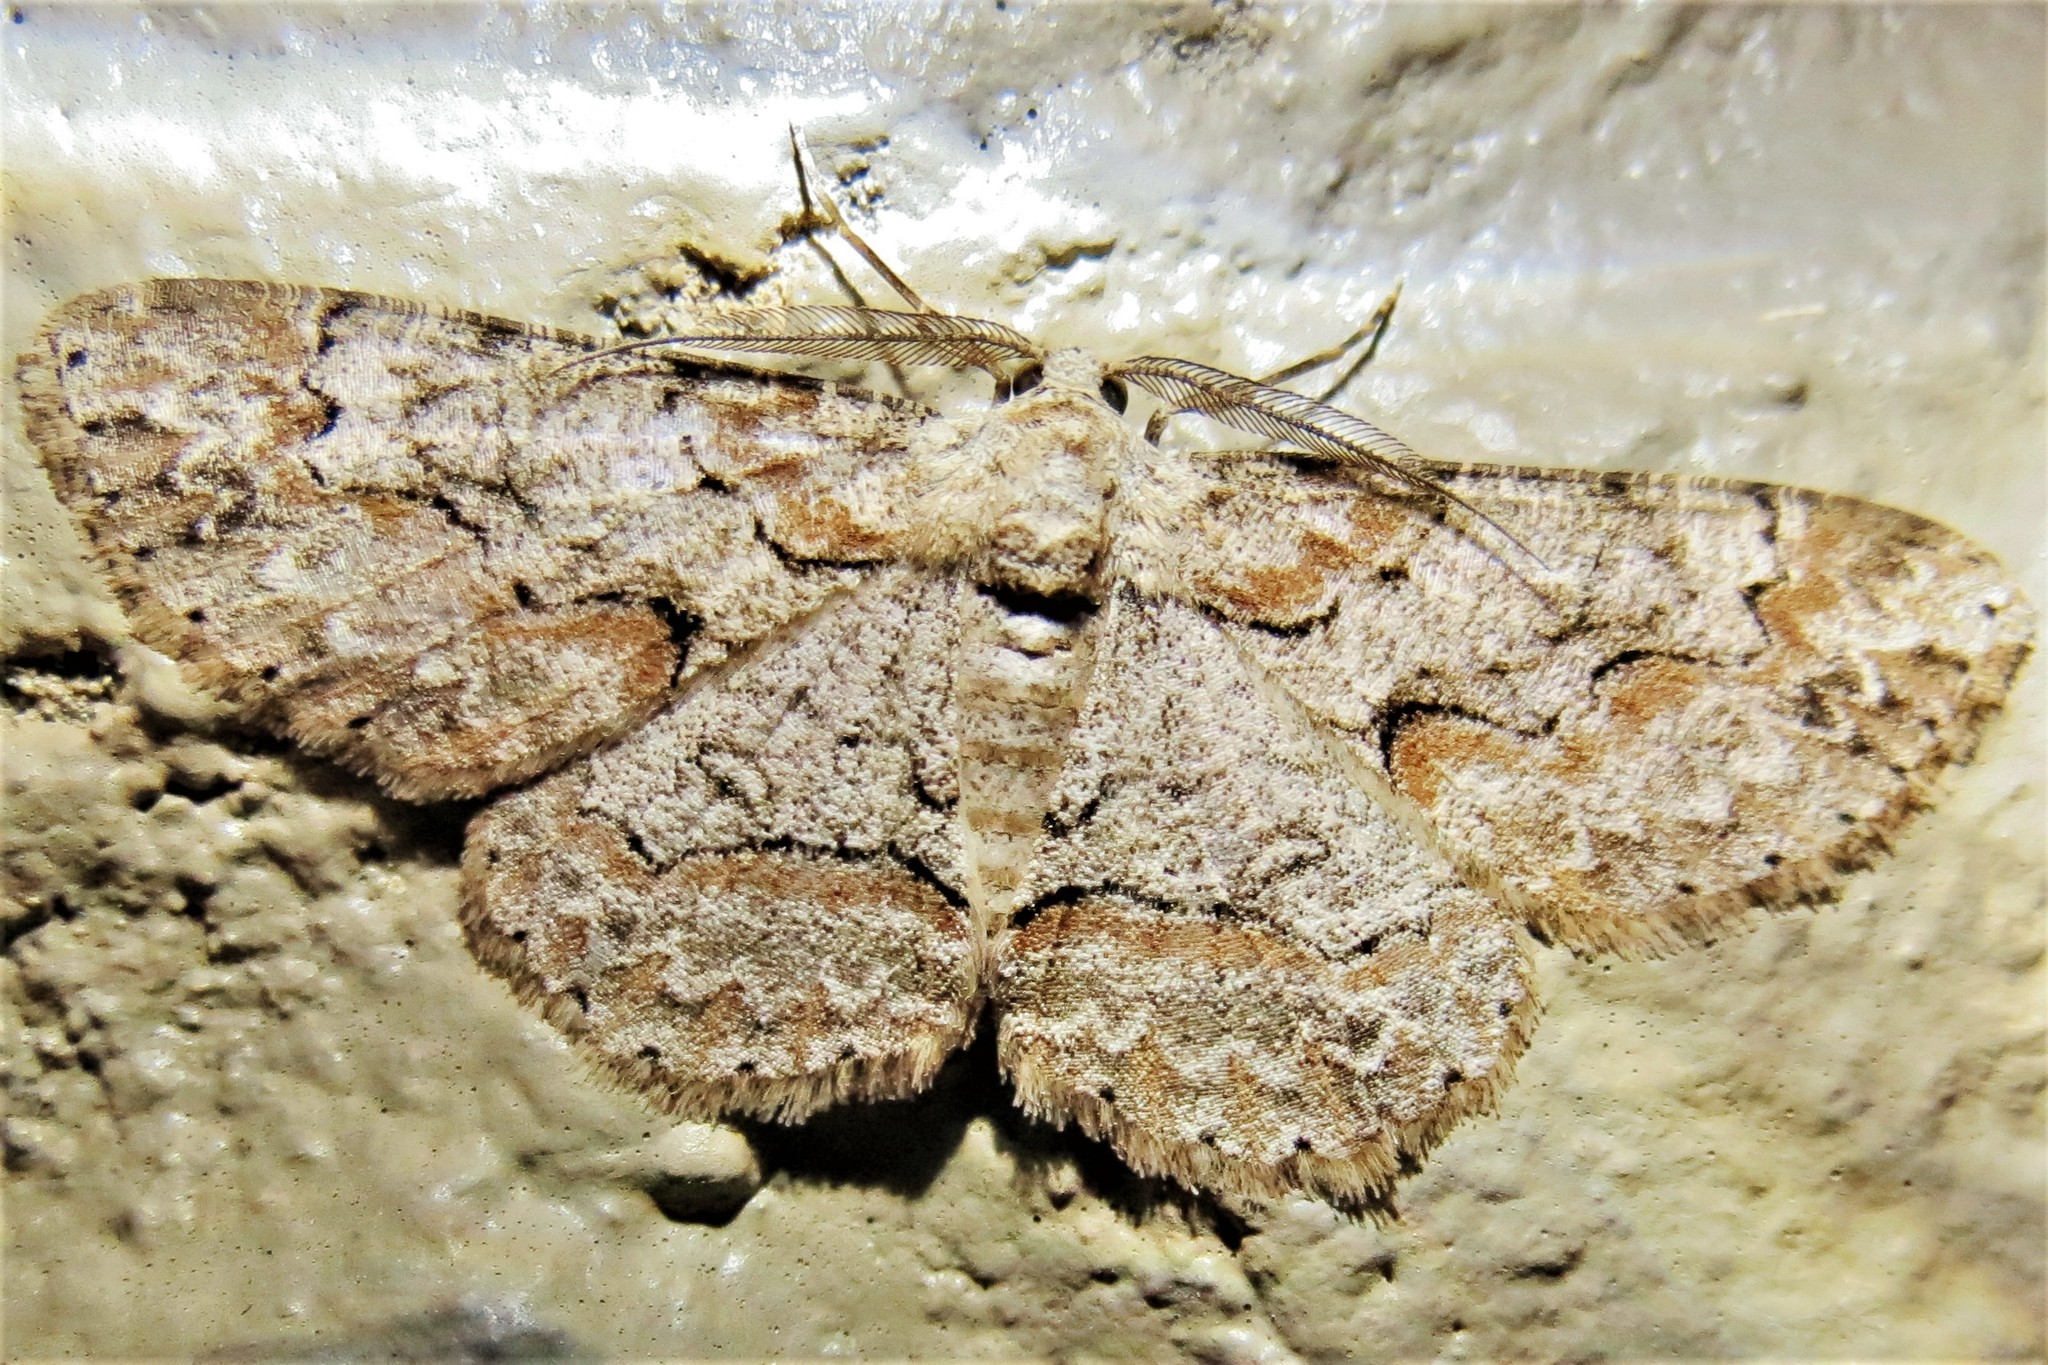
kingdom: Animalia
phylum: Arthropoda
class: Insecta
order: Lepidoptera
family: Geometridae
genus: Iridopsis
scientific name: Iridopsis defectaria
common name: Brown-shaded gray
